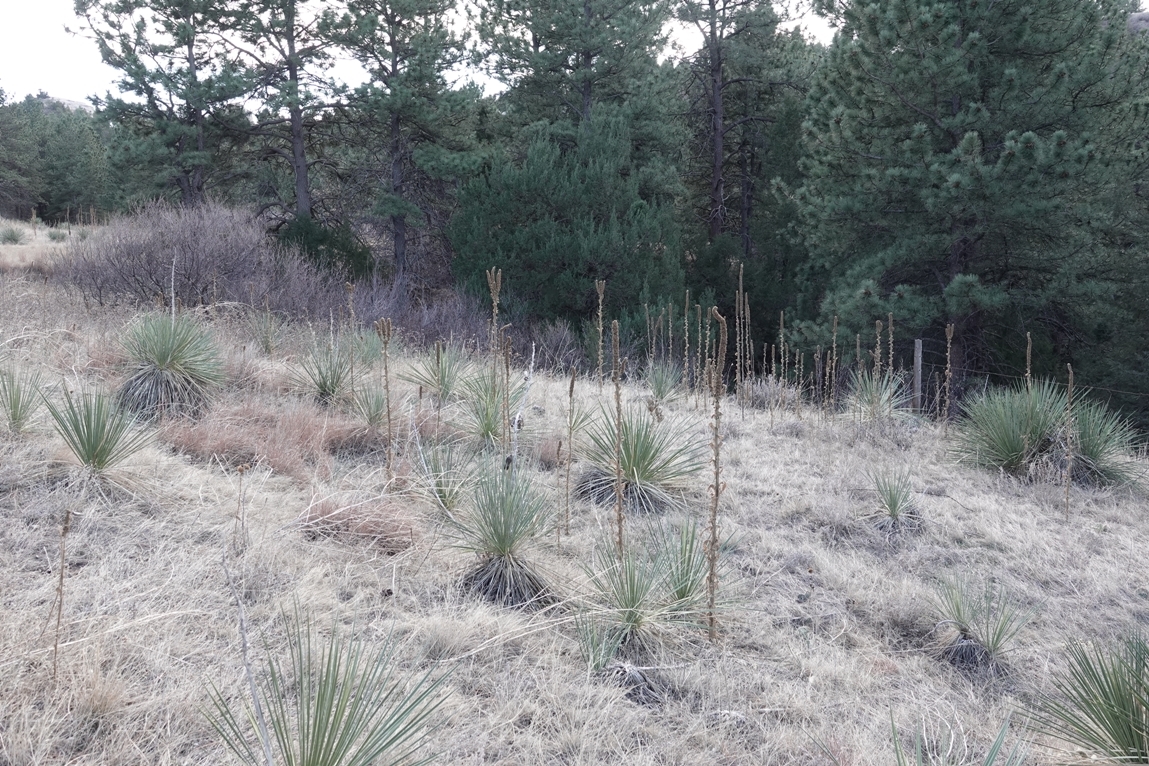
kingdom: Plantae
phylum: Tracheophyta
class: Magnoliopsida
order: Lamiales
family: Scrophulariaceae
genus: Verbascum
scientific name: Verbascum thapsus
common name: Common mullein
